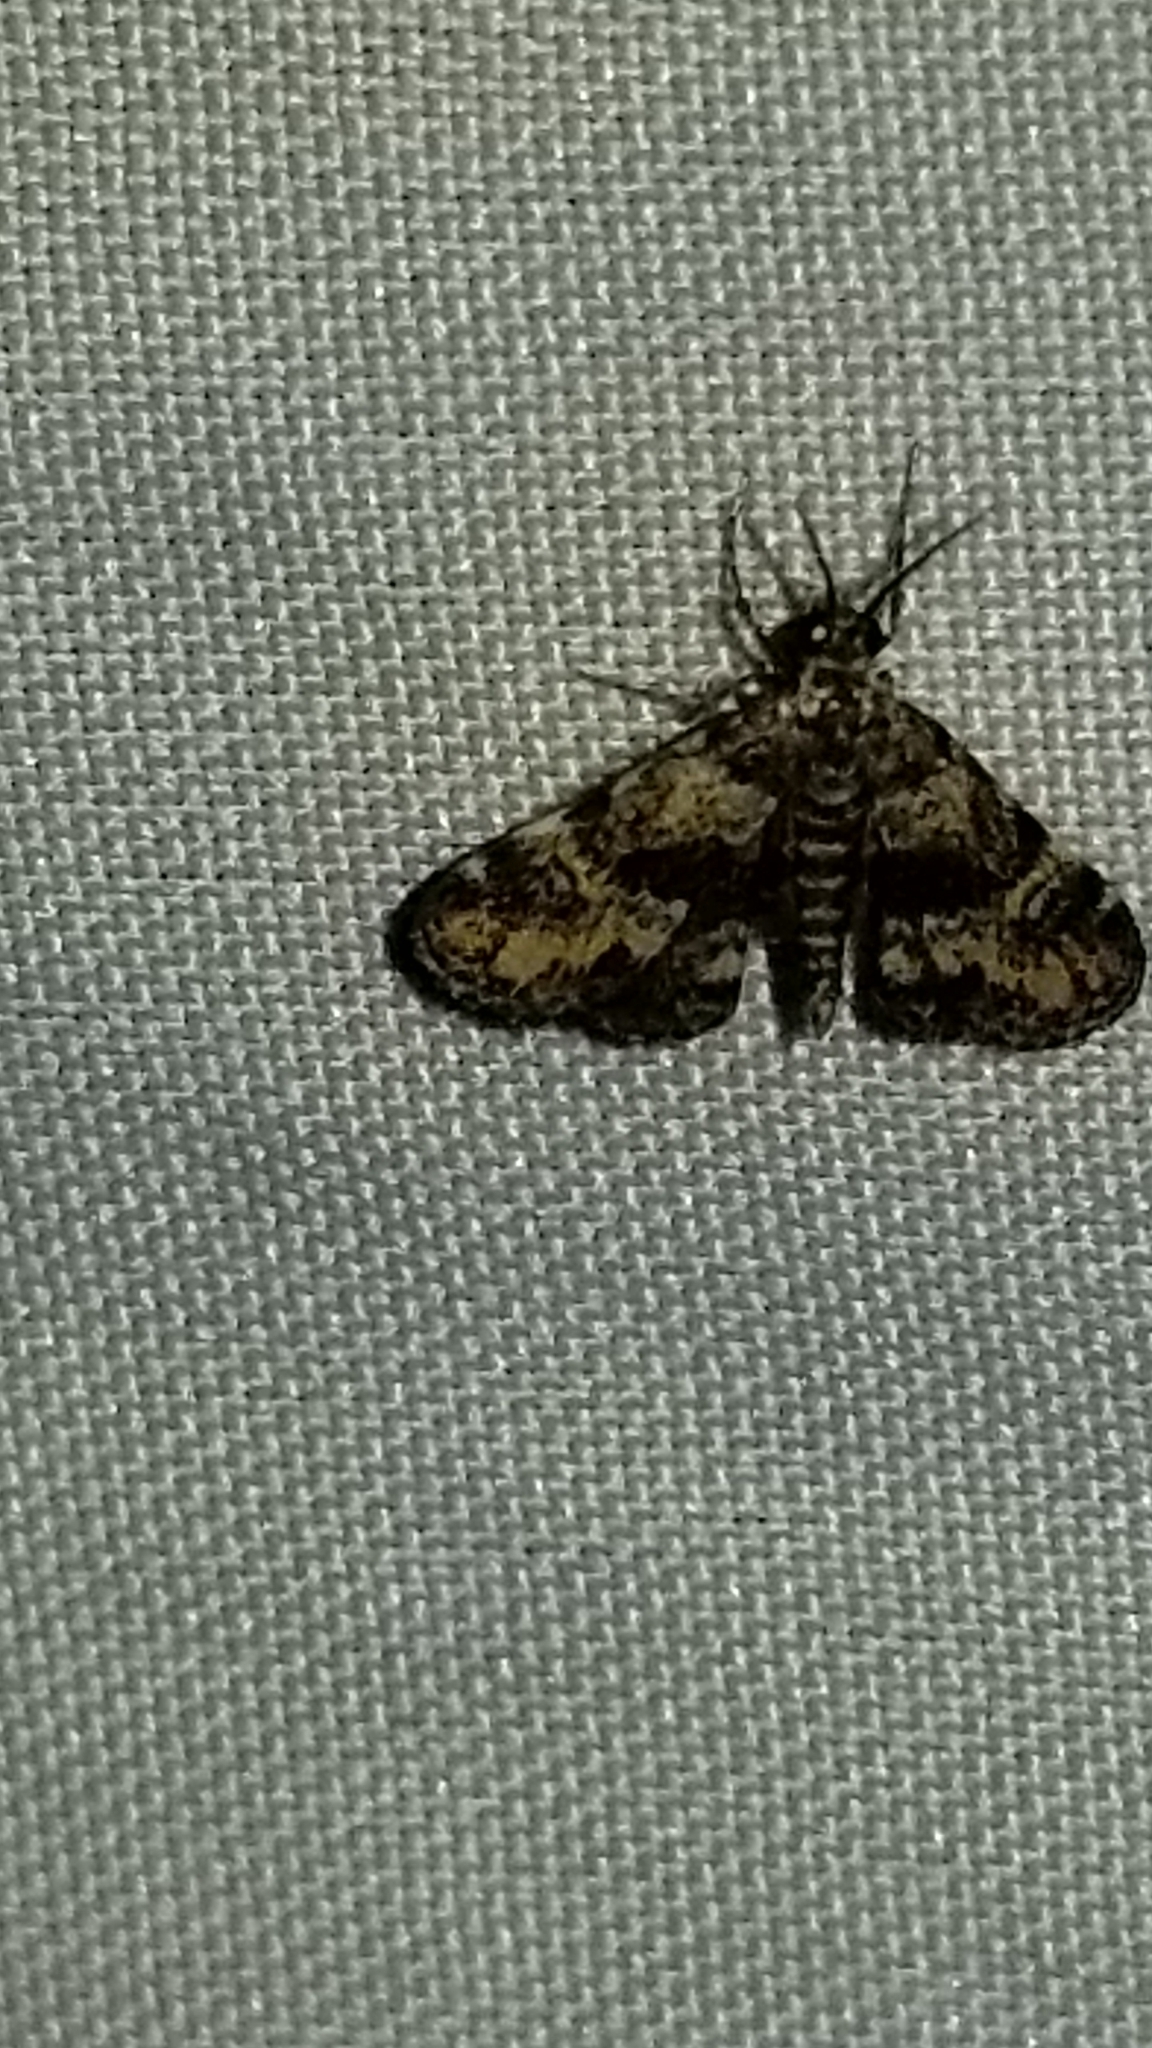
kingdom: Animalia
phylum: Arthropoda
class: Insecta
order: Lepidoptera
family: Crambidae
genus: Elophila
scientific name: Elophila obliteralis
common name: Waterlily leafcutter moth
